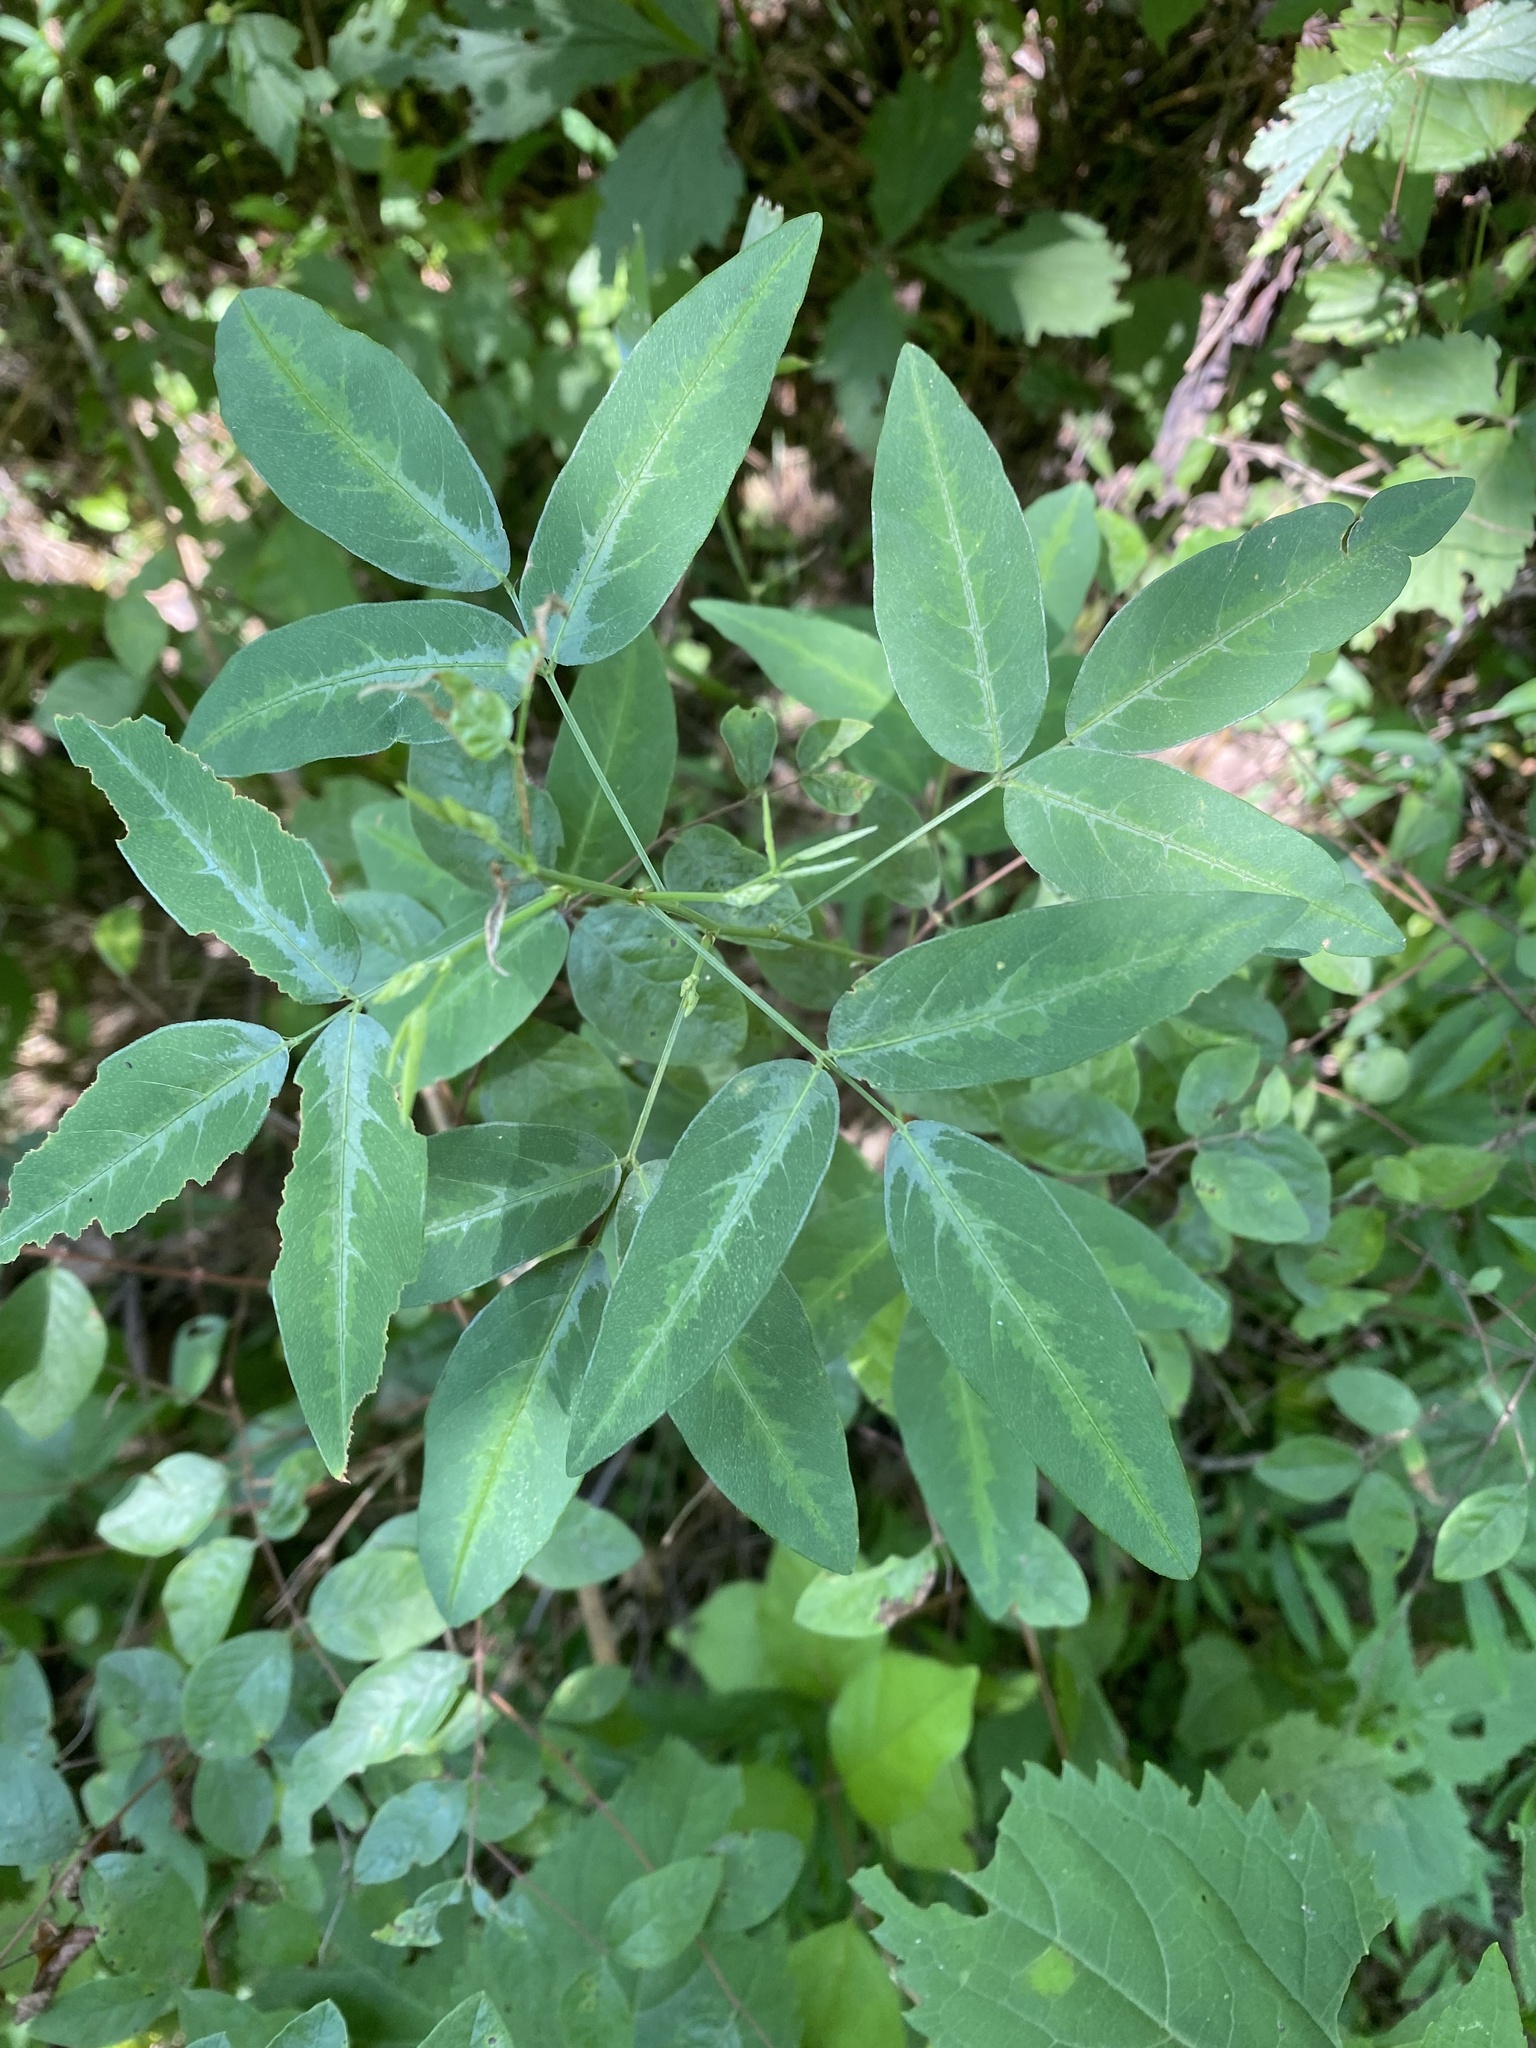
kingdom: Plantae
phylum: Tracheophyta
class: Magnoliopsida
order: Fabales
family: Fabaceae
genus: Desmodium
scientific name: Desmodium paniculatum
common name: Panicled tick-clover
